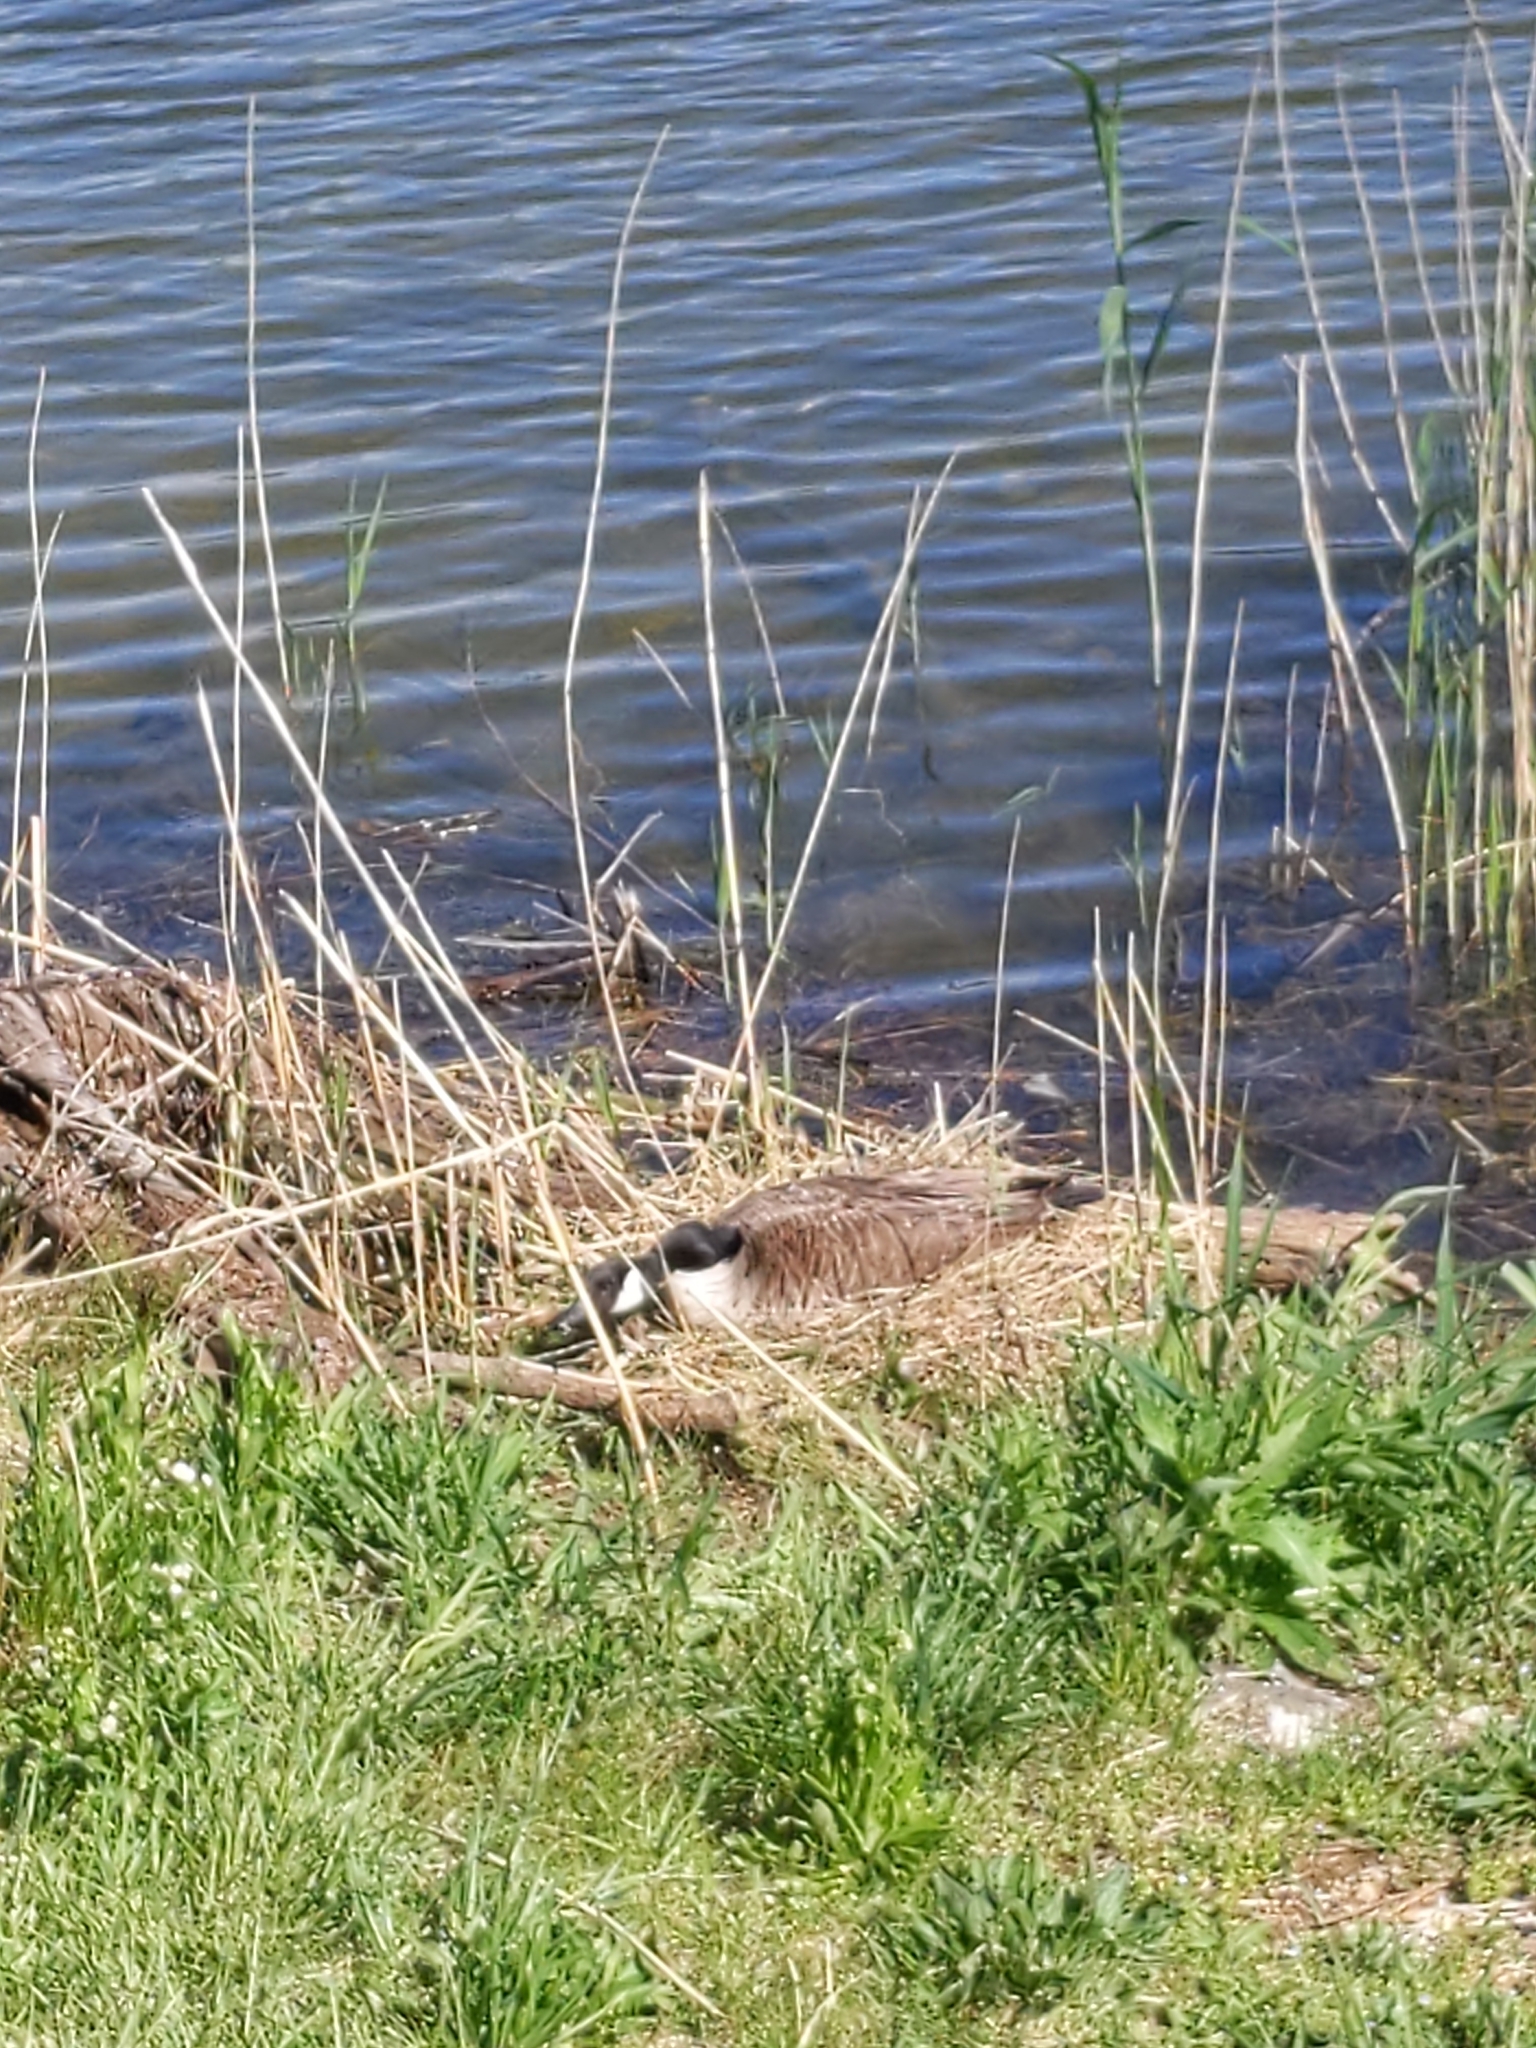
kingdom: Animalia
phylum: Chordata
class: Aves
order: Anseriformes
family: Anatidae
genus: Branta
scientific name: Branta canadensis
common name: Canada goose
